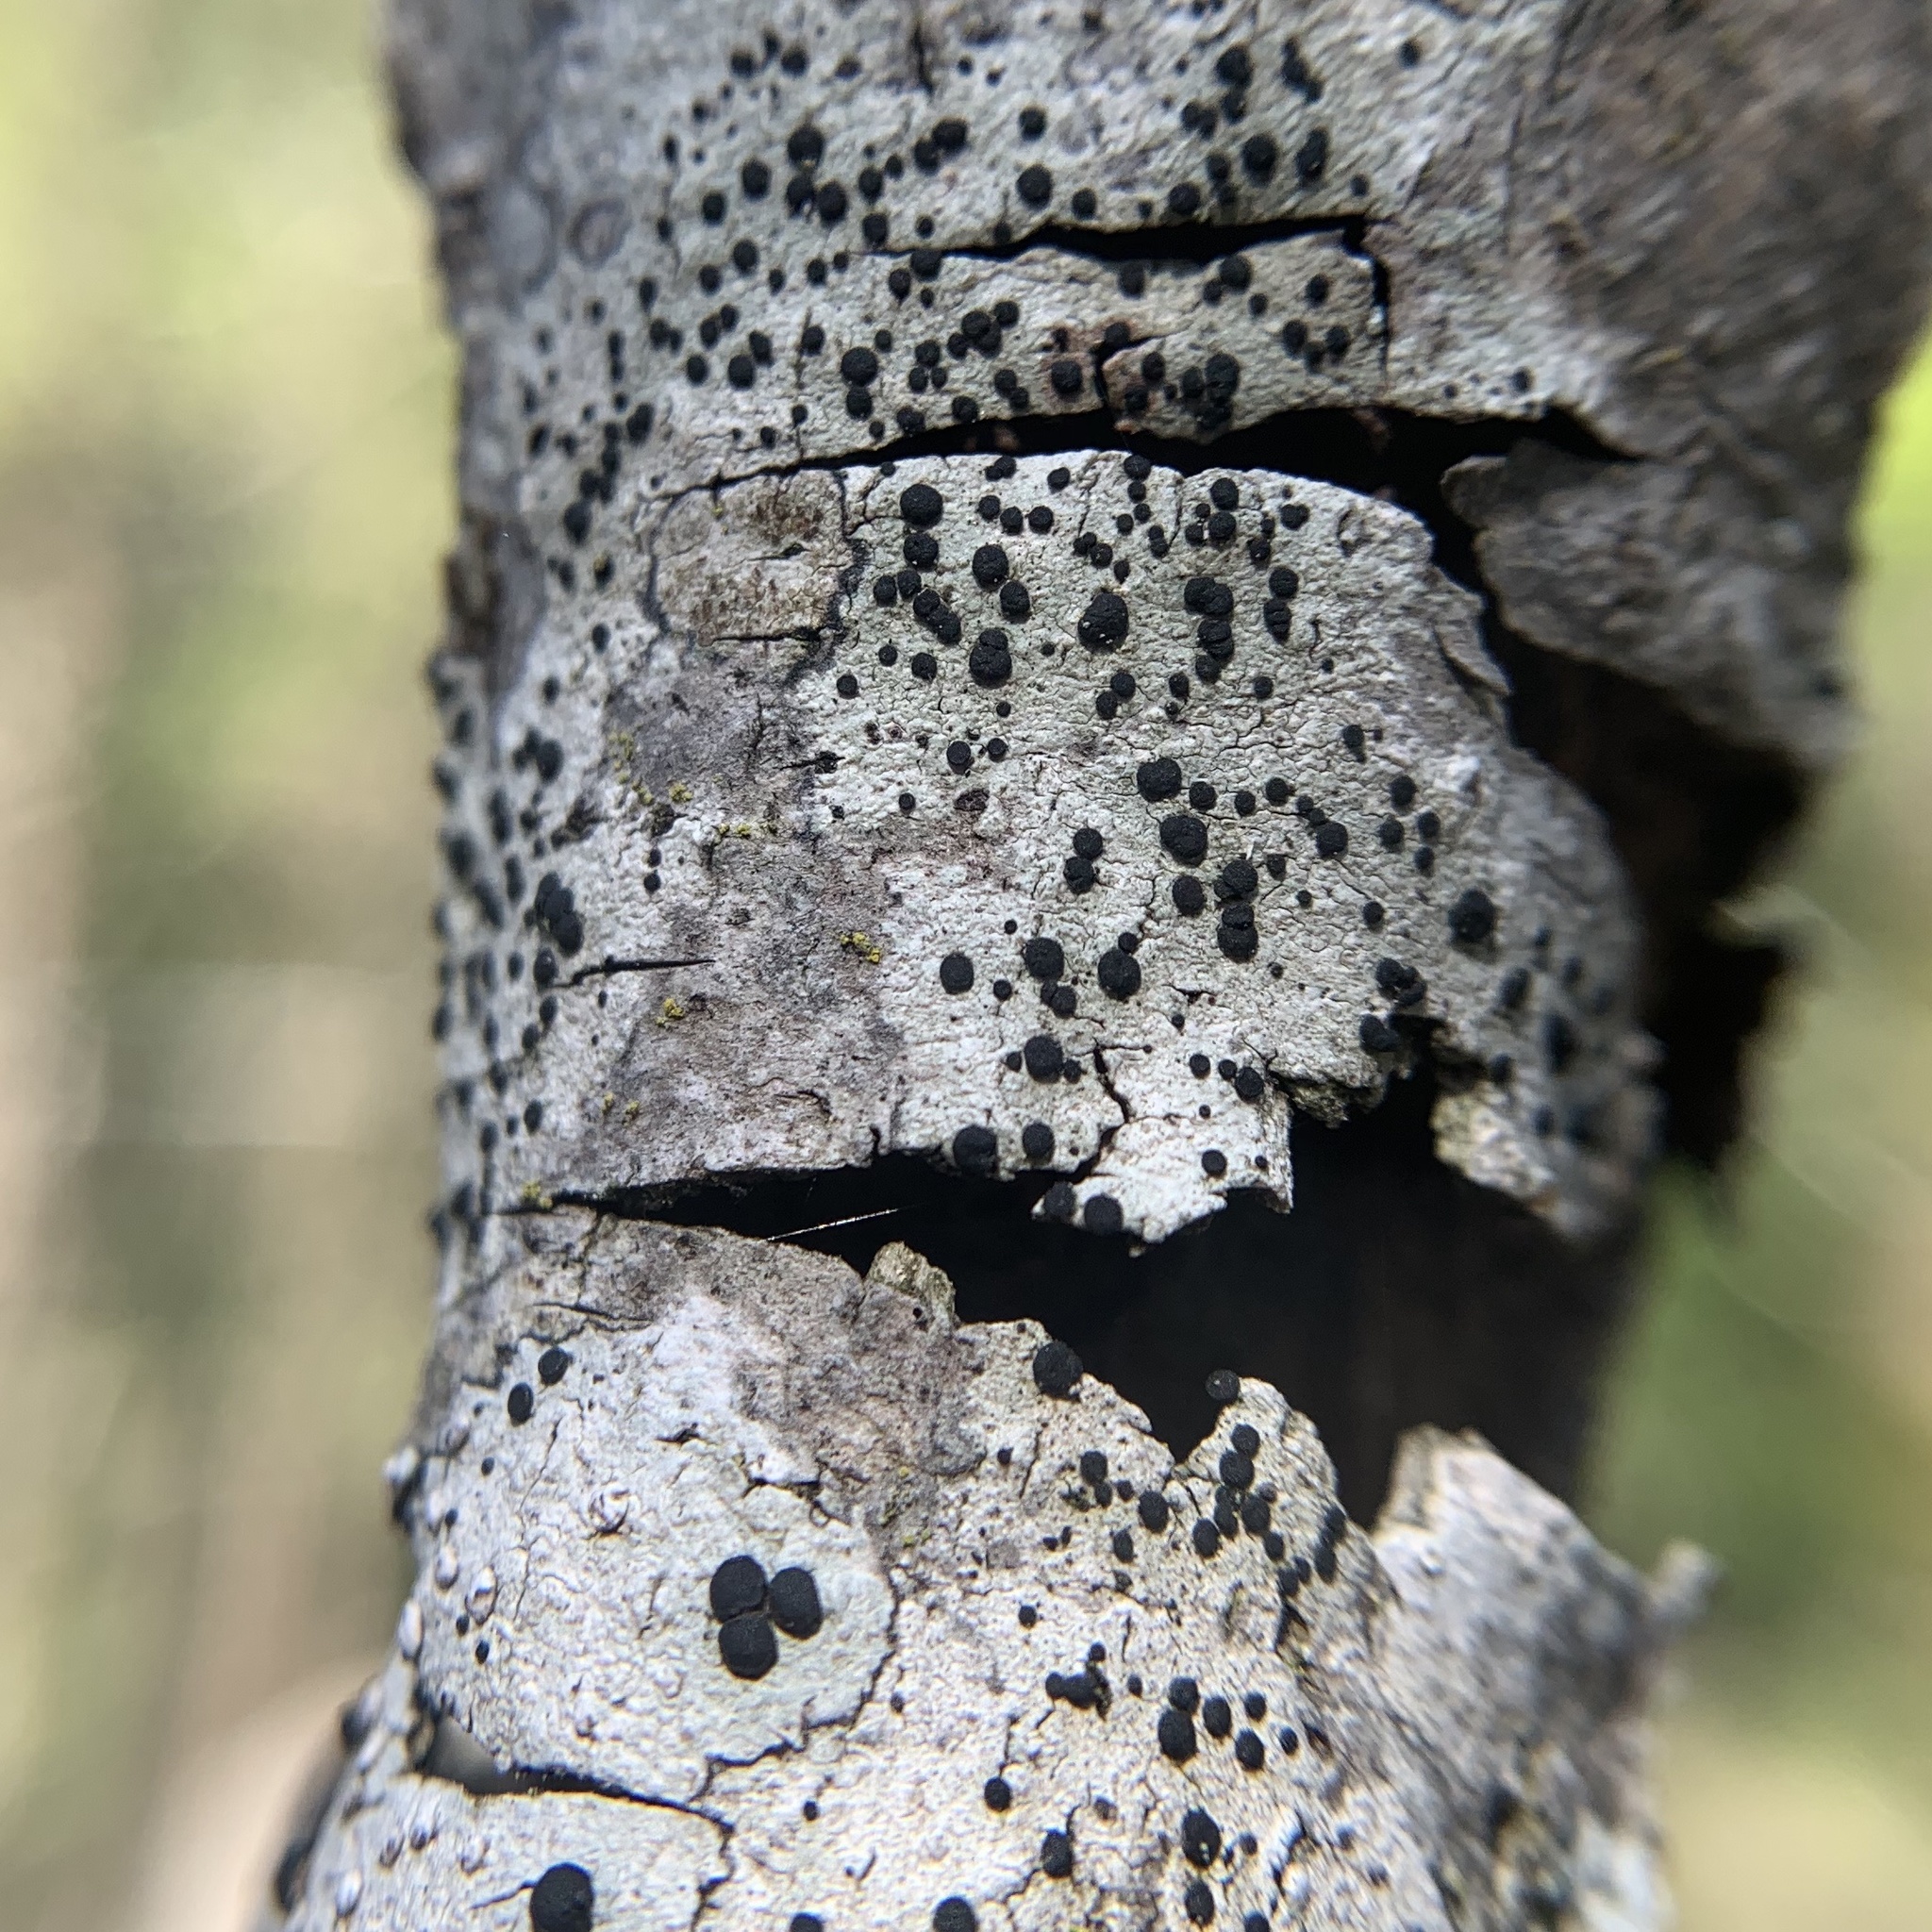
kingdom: Fungi
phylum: Ascomycota
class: Lecanoromycetes
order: Caliciales
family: Caliciaceae
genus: Baculifera
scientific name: Baculifera curtisii
